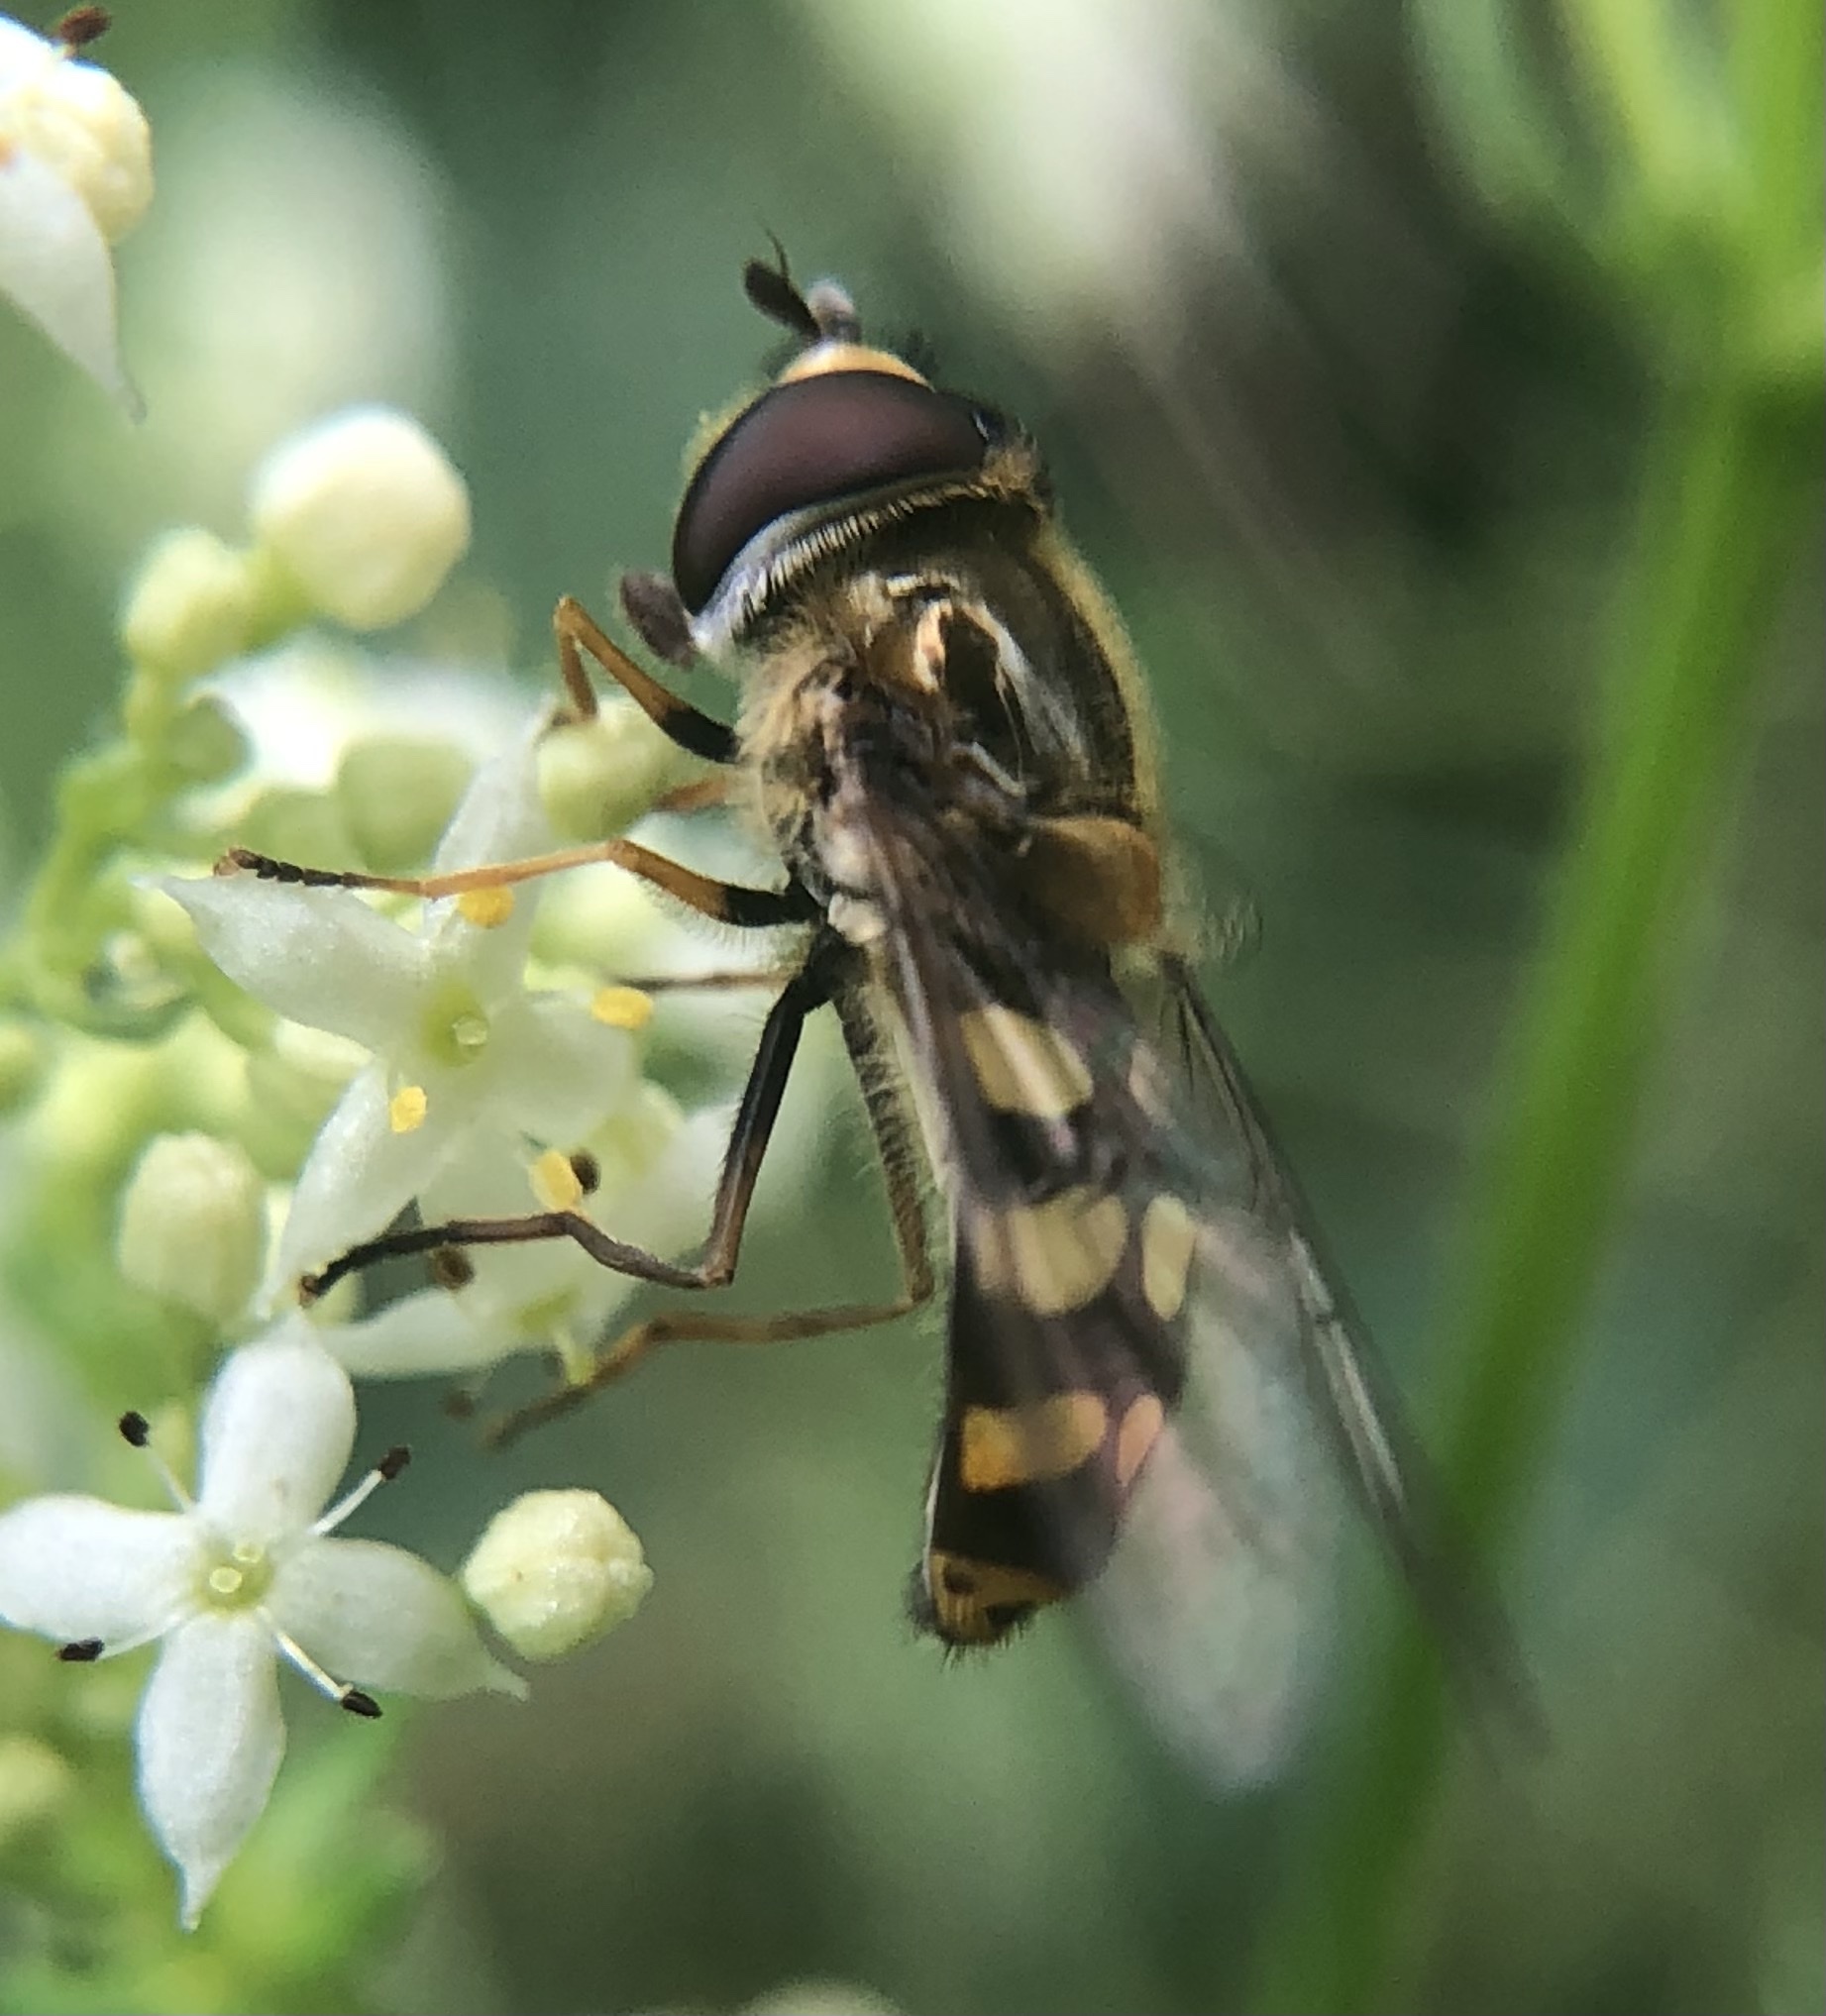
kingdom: Animalia
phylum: Arthropoda
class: Insecta
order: Diptera
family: Syrphidae
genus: Eupeodes
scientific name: Eupeodes
